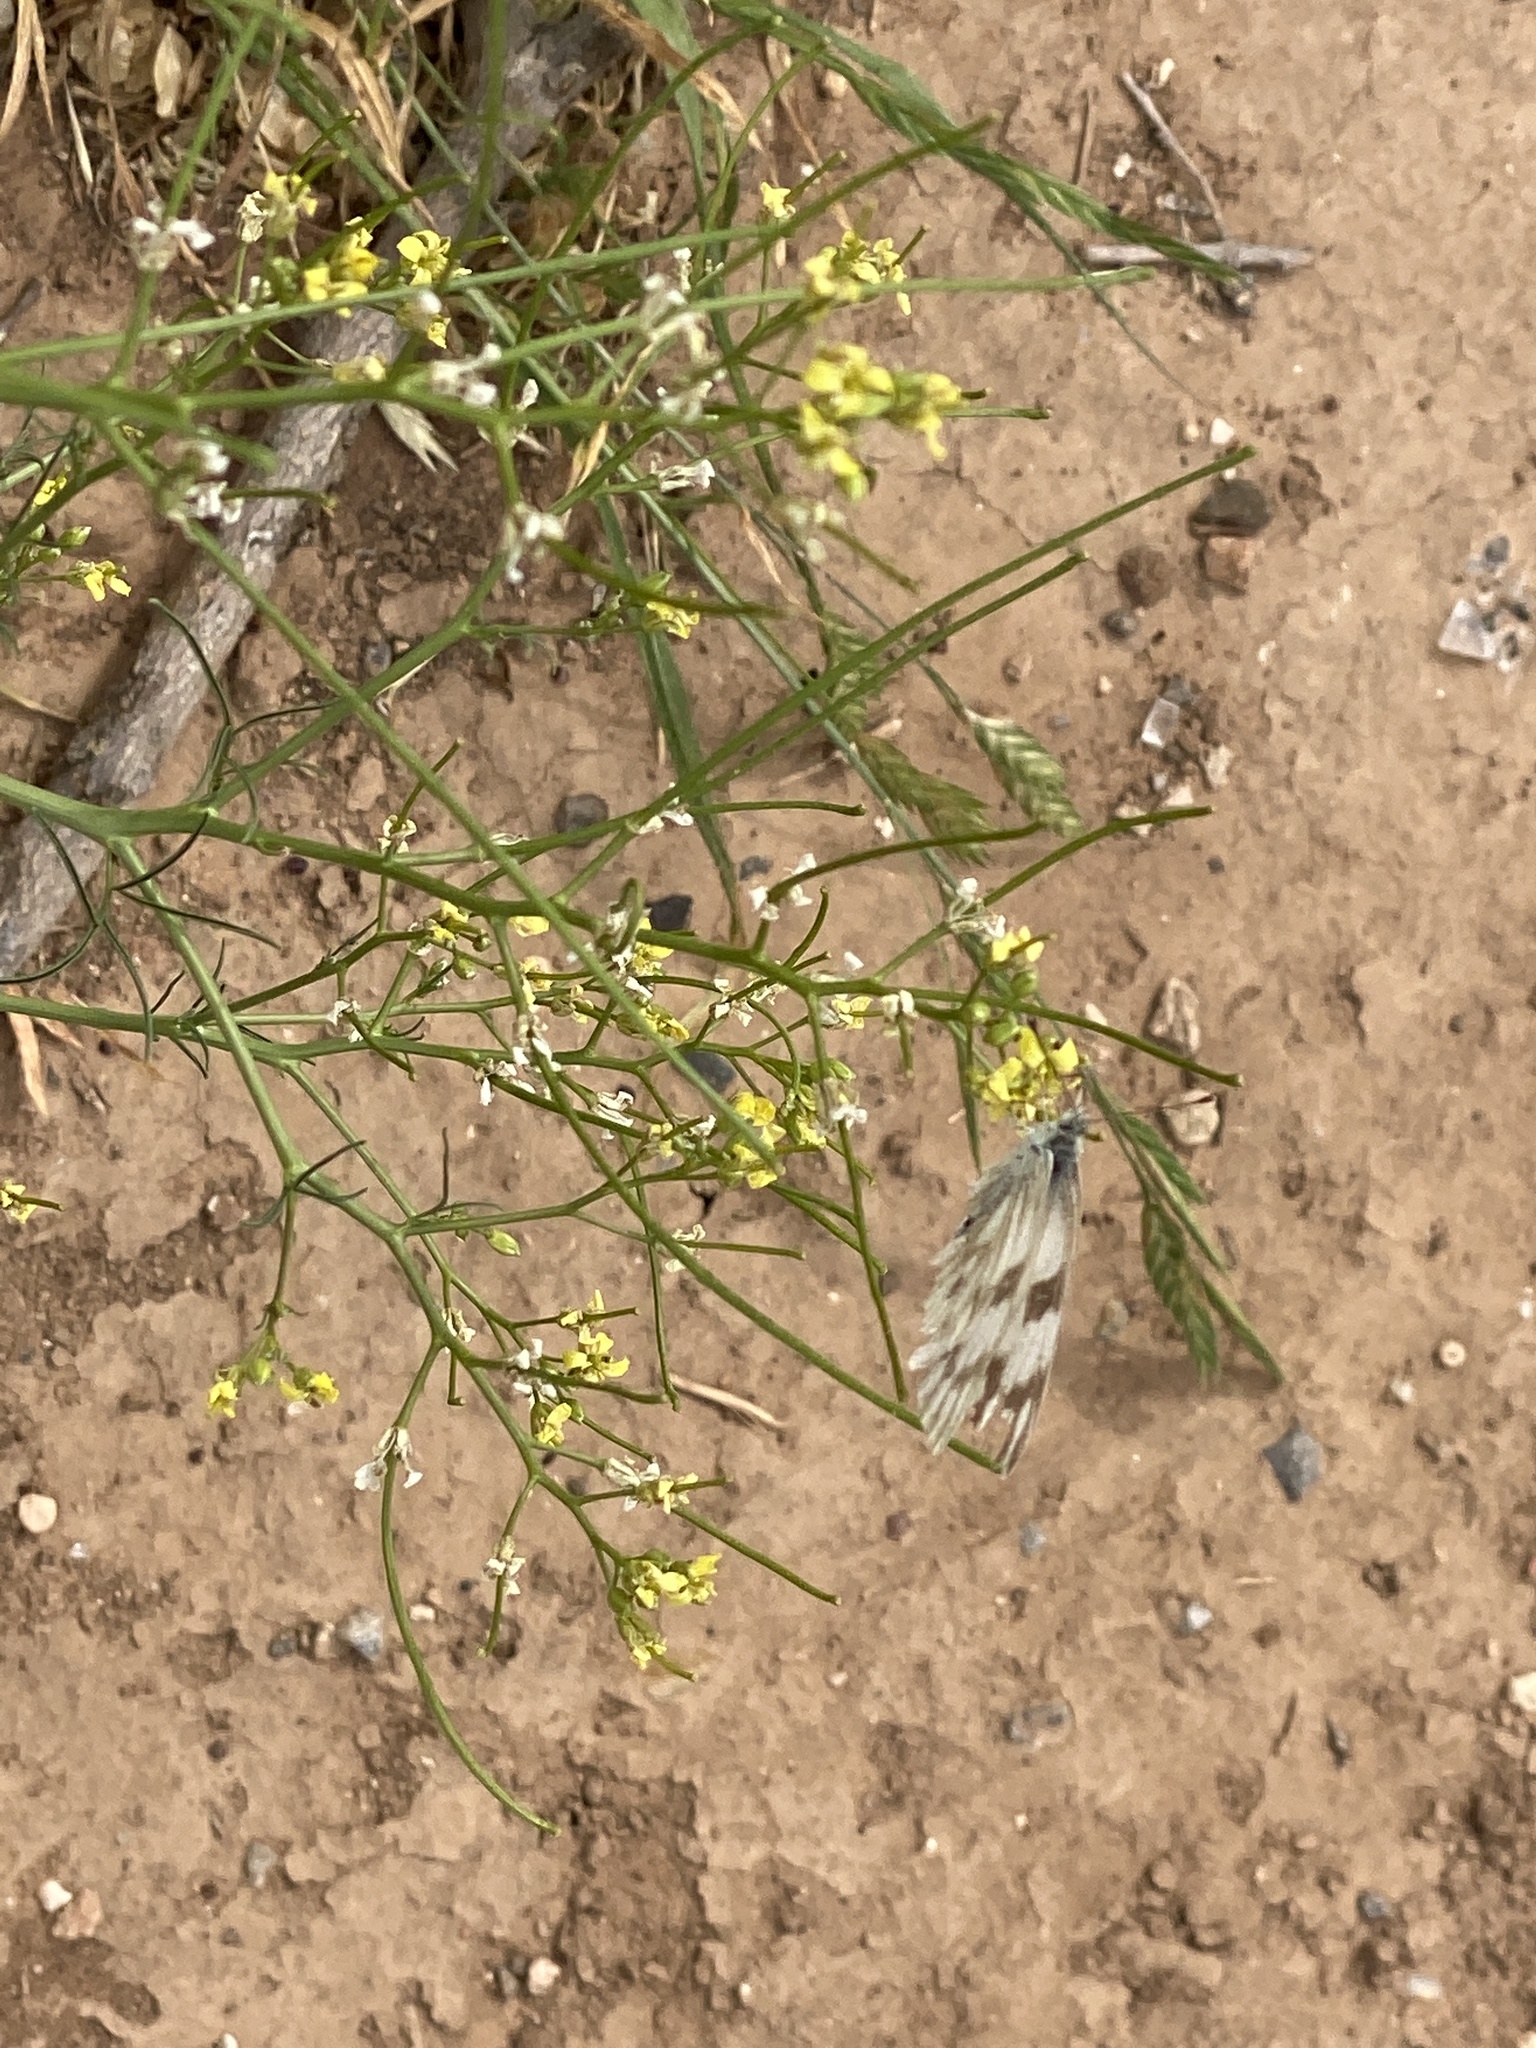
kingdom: Animalia
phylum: Arthropoda
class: Insecta
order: Lepidoptera
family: Pieridae
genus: Pontia
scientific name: Pontia protodice
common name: Checkered white
